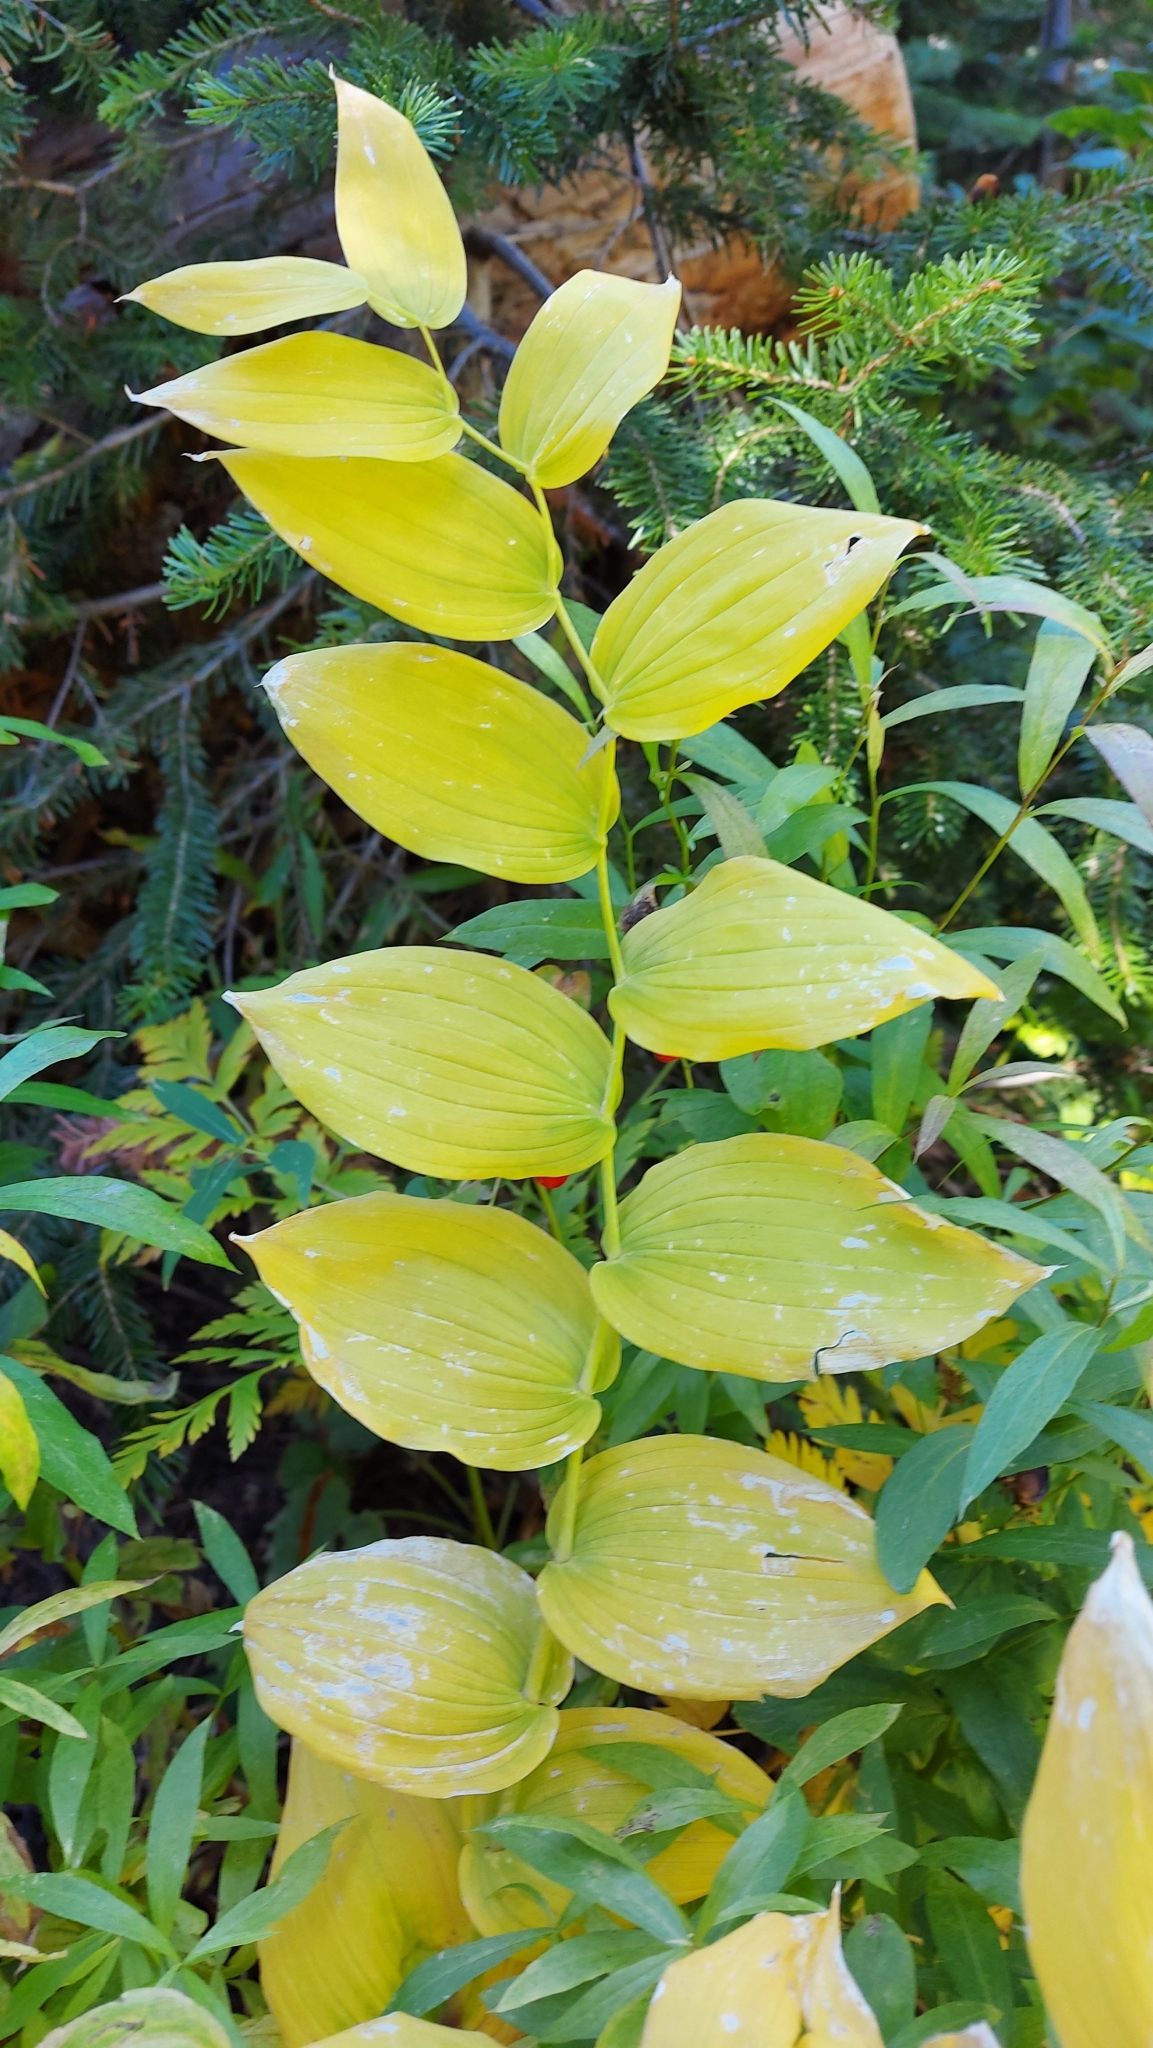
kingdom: Plantae
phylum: Tracheophyta
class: Liliopsida
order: Liliales
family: Liliaceae
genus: Streptopus
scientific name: Streptopus amplexifolius
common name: Clasp twisted stalk
